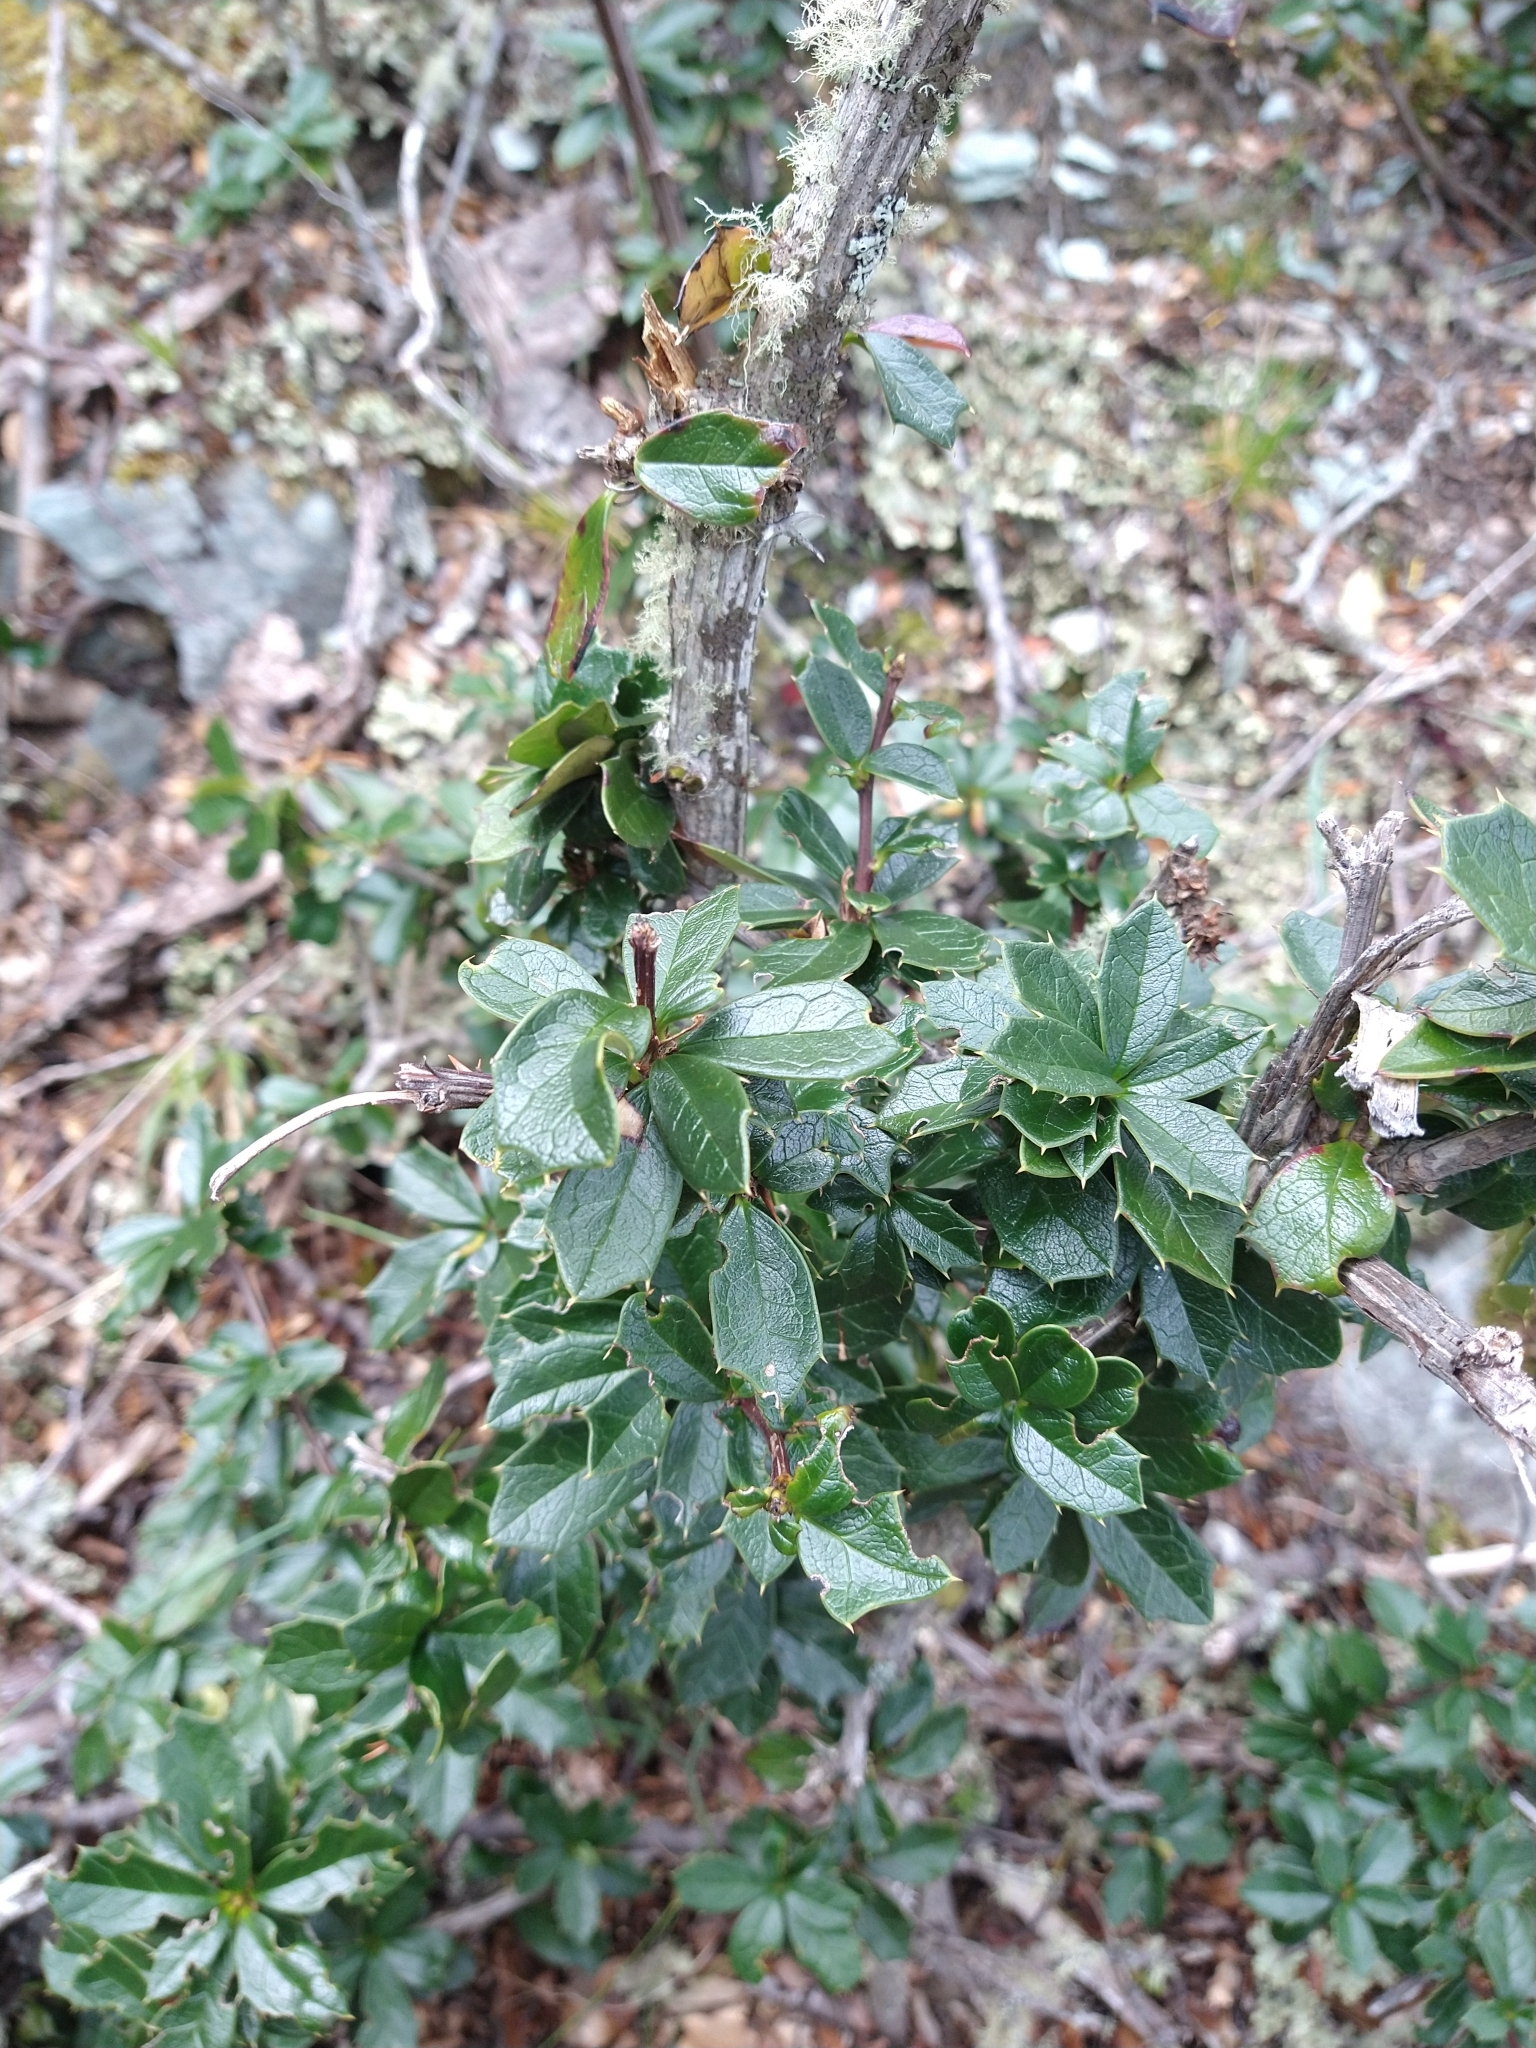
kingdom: Plantae
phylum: Tracheophyta
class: Magnoliopsida
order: Ranunculales
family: Berberidaceae
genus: Berberis
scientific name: Berberis ilicifolia
